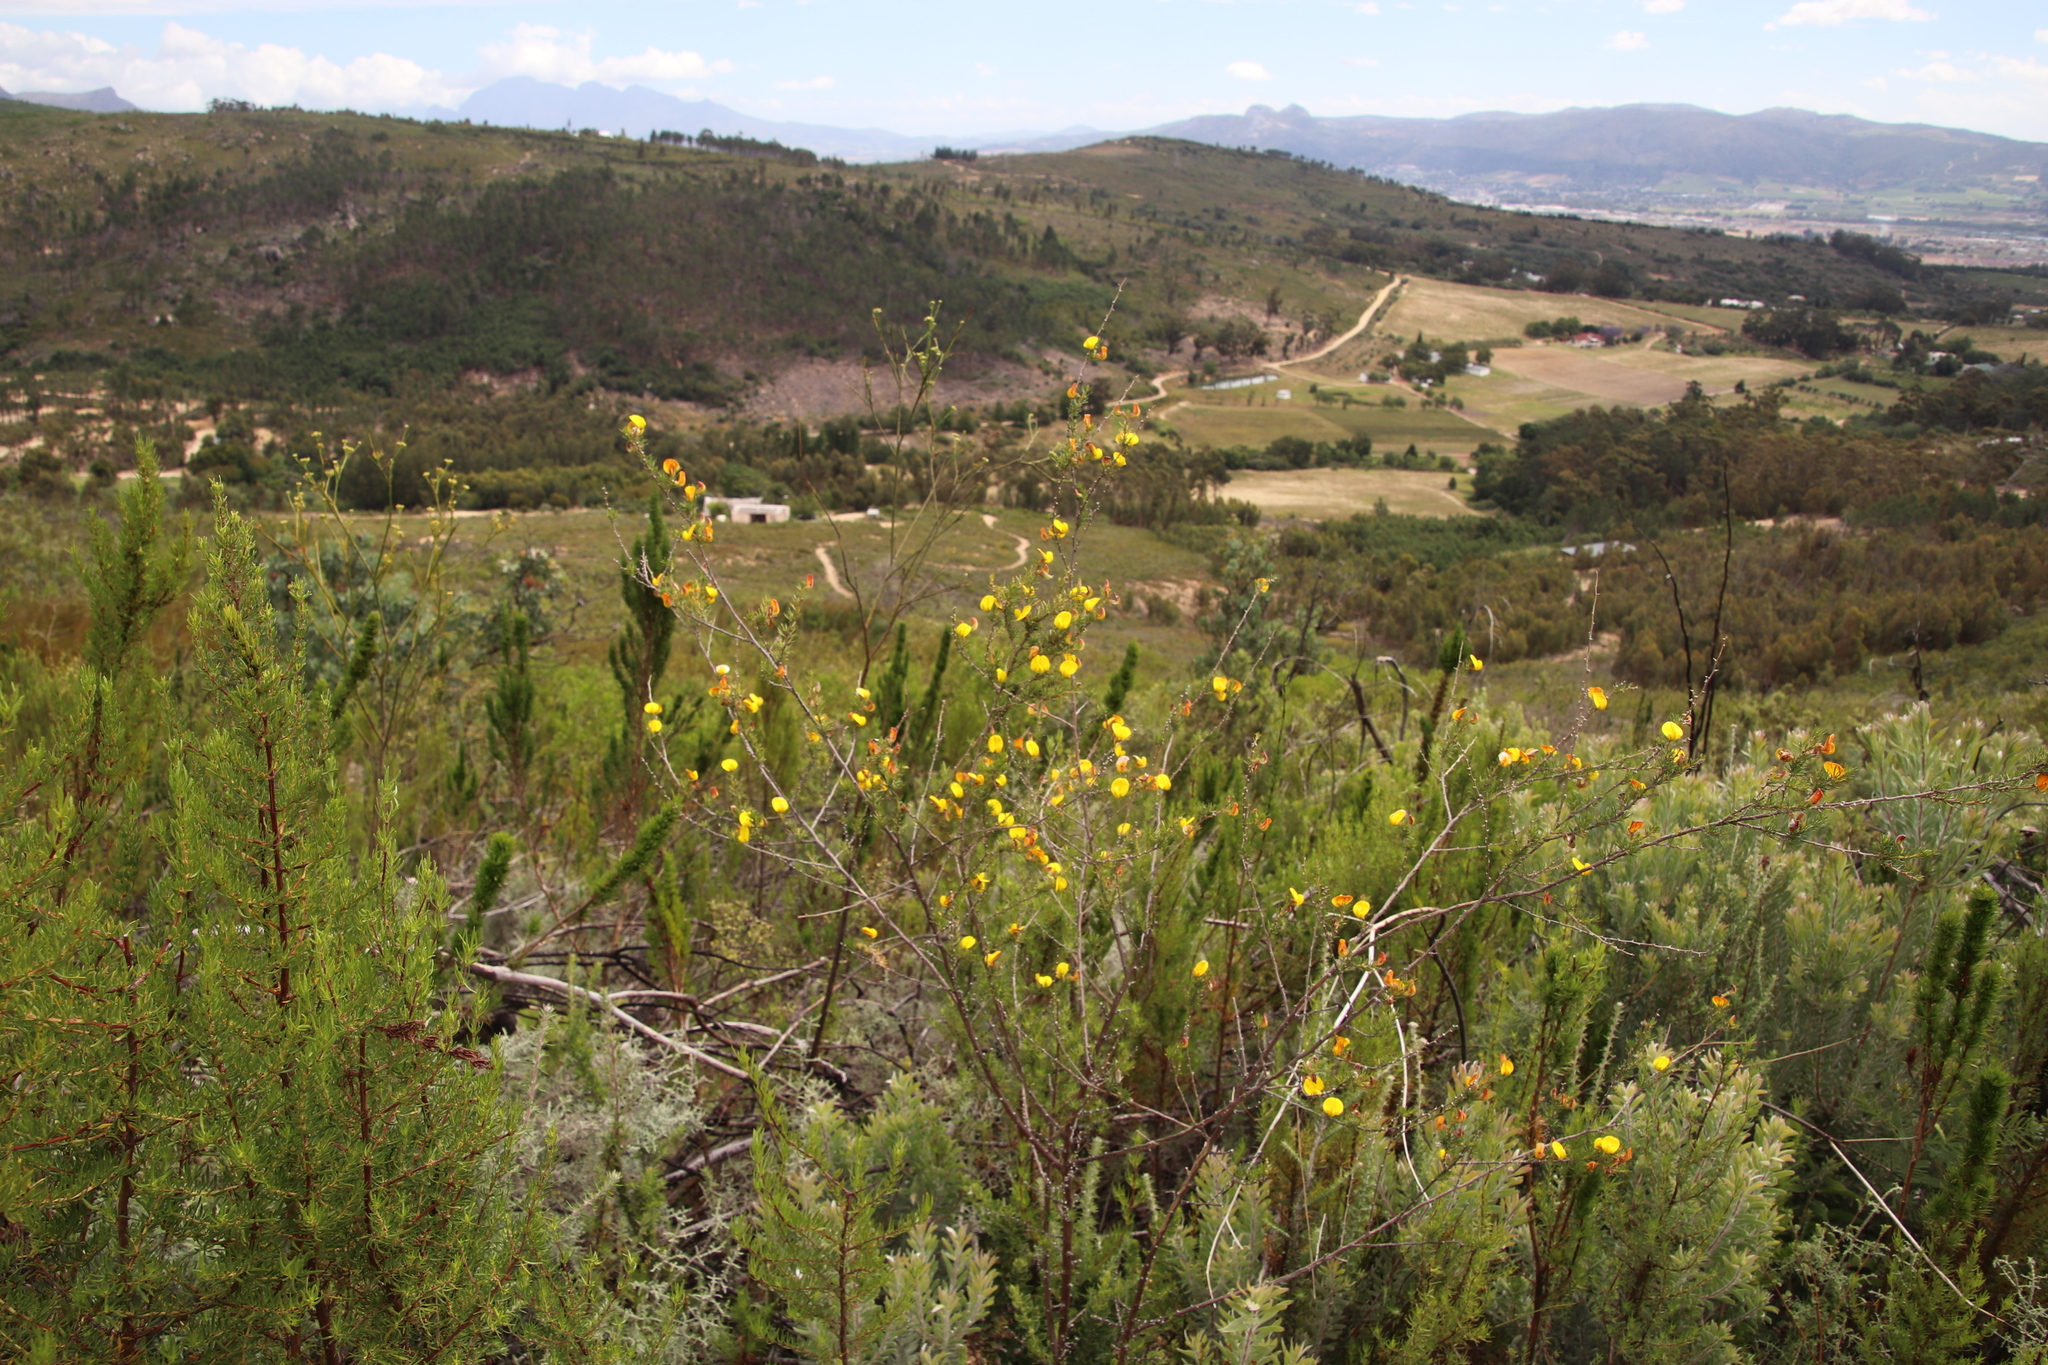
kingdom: Plantae
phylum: Tracheophyta
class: Magnoliopsida
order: Fabales
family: Fabaceae
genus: Aspalathus
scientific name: Aspalathus uniflora
